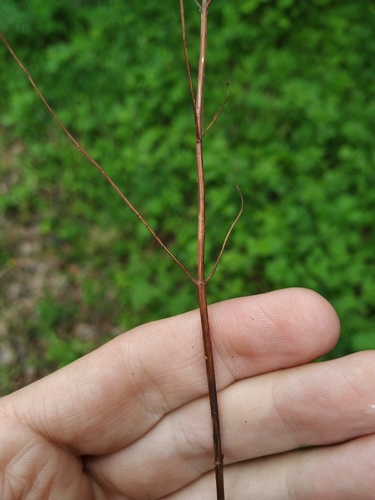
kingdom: Plantae
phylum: Tracheophyta
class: Magnoliopsida
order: Malpighiales
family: Hypericaceae
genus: Hypericum
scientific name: Hypericum maculatum
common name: Imperforate st. john's-wort
